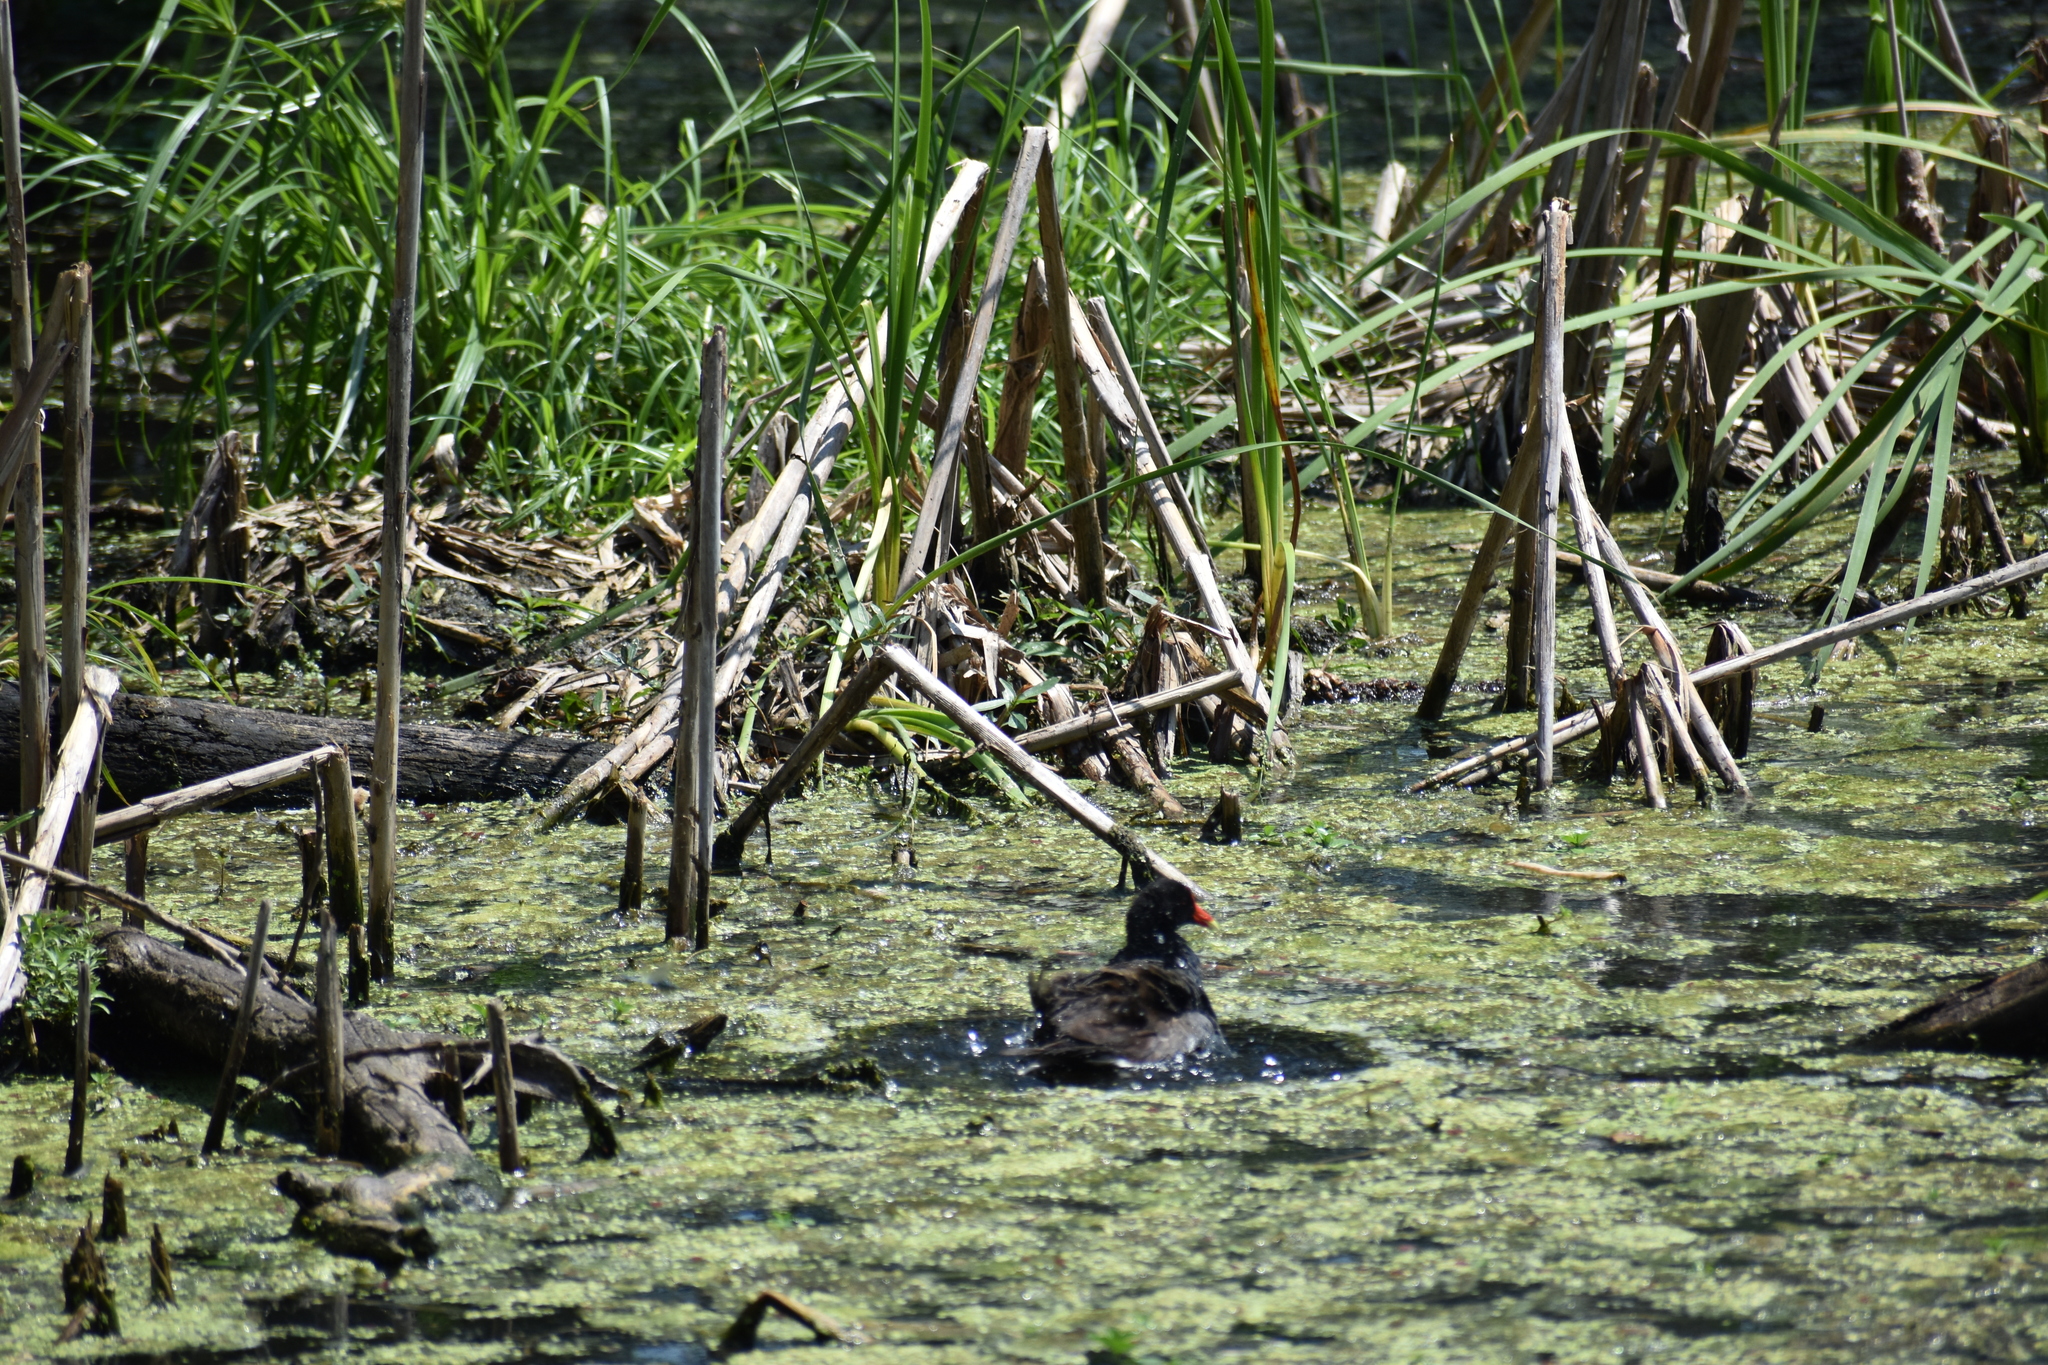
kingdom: Animalia
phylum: Chordata
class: Aves
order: Gruiformes
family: Rallidae
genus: Gallinula
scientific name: Gallinula chloropus
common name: Common moorhen
